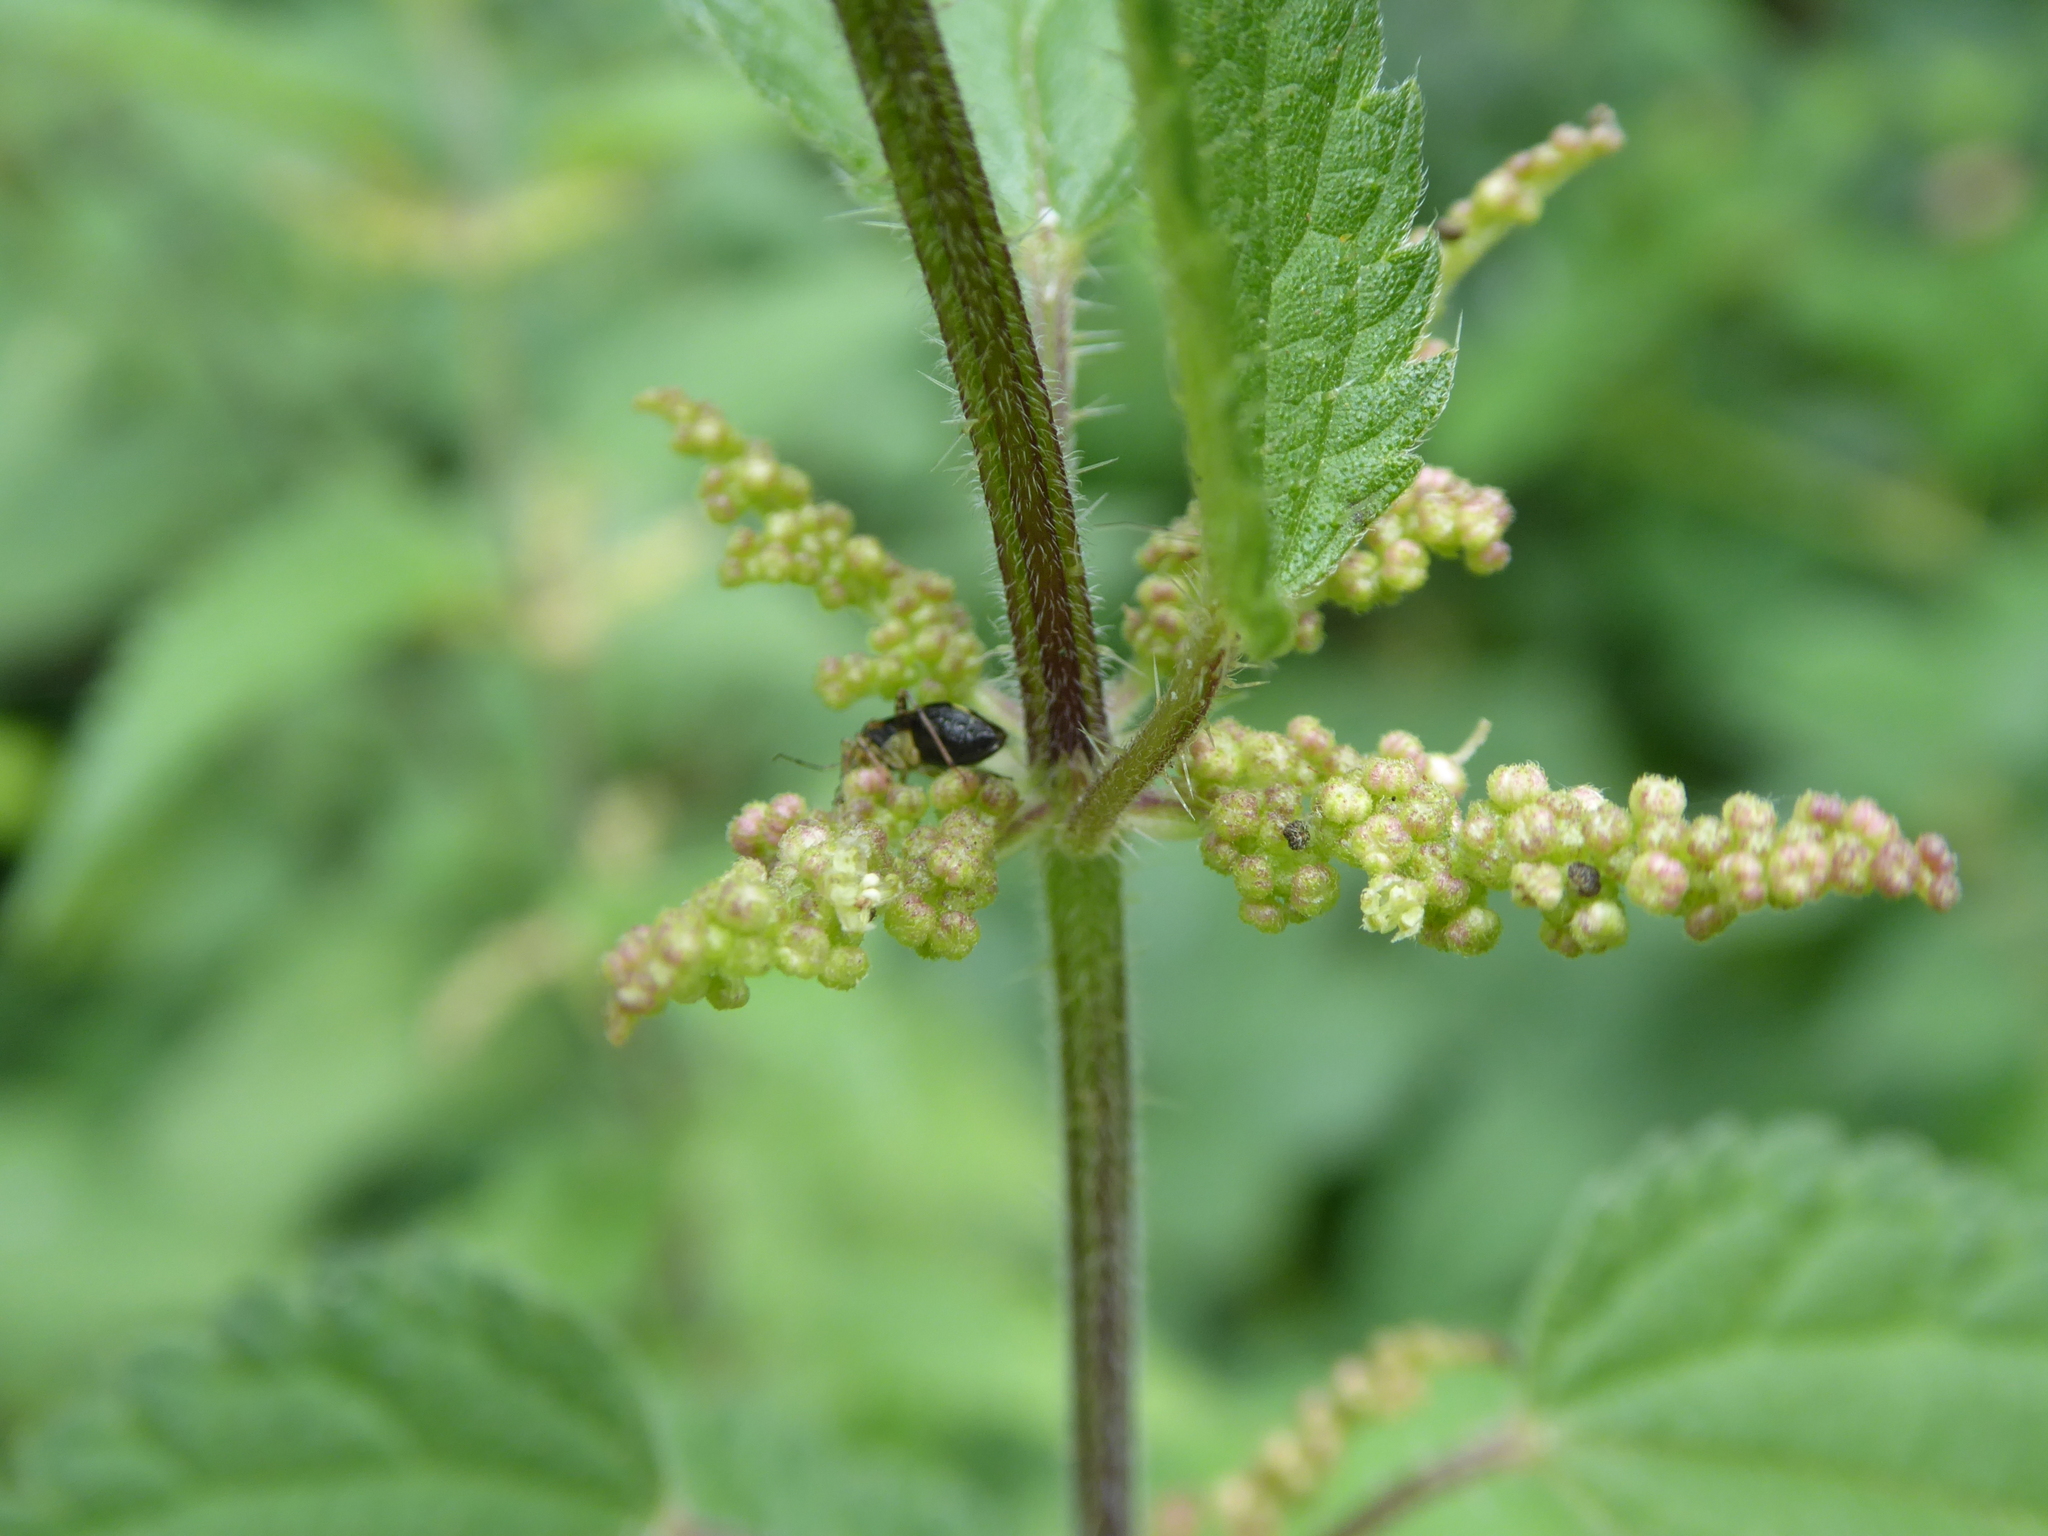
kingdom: Plantae
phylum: Tracheophyta
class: Magnoliopsida
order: Rosales
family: Urticaceae
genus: Urtica
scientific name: Urtica dioica
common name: Common nettle
